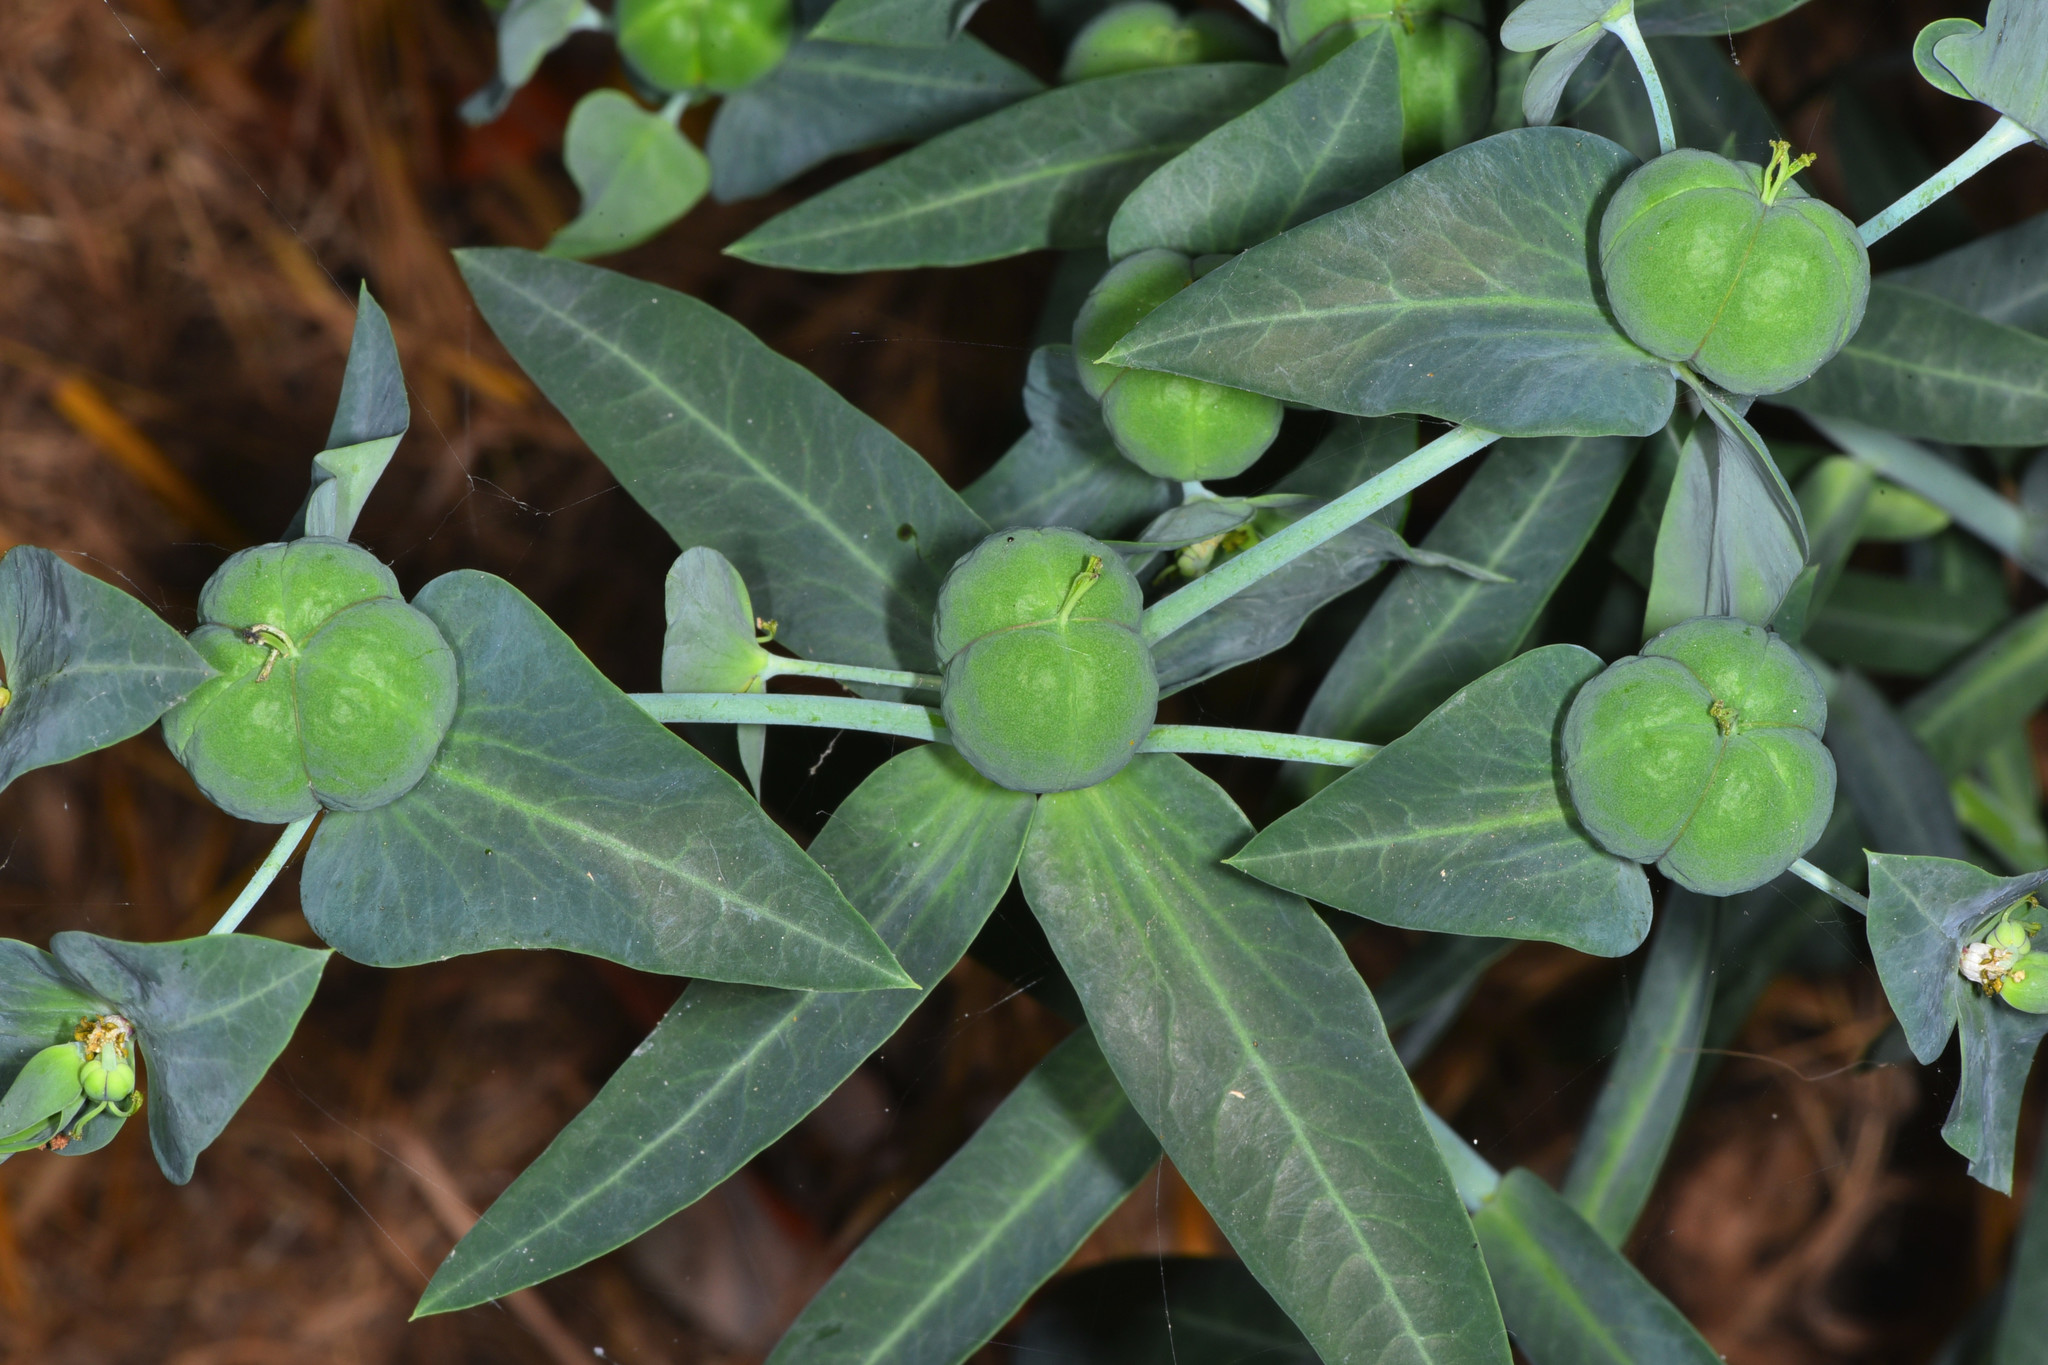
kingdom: Plantae
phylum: Tracheophyta
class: Magnoliopsida
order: Malpighiales
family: Euphorbiaceae
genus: Euphorbia
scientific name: Euphorbia lathyris
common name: Caper spurge
